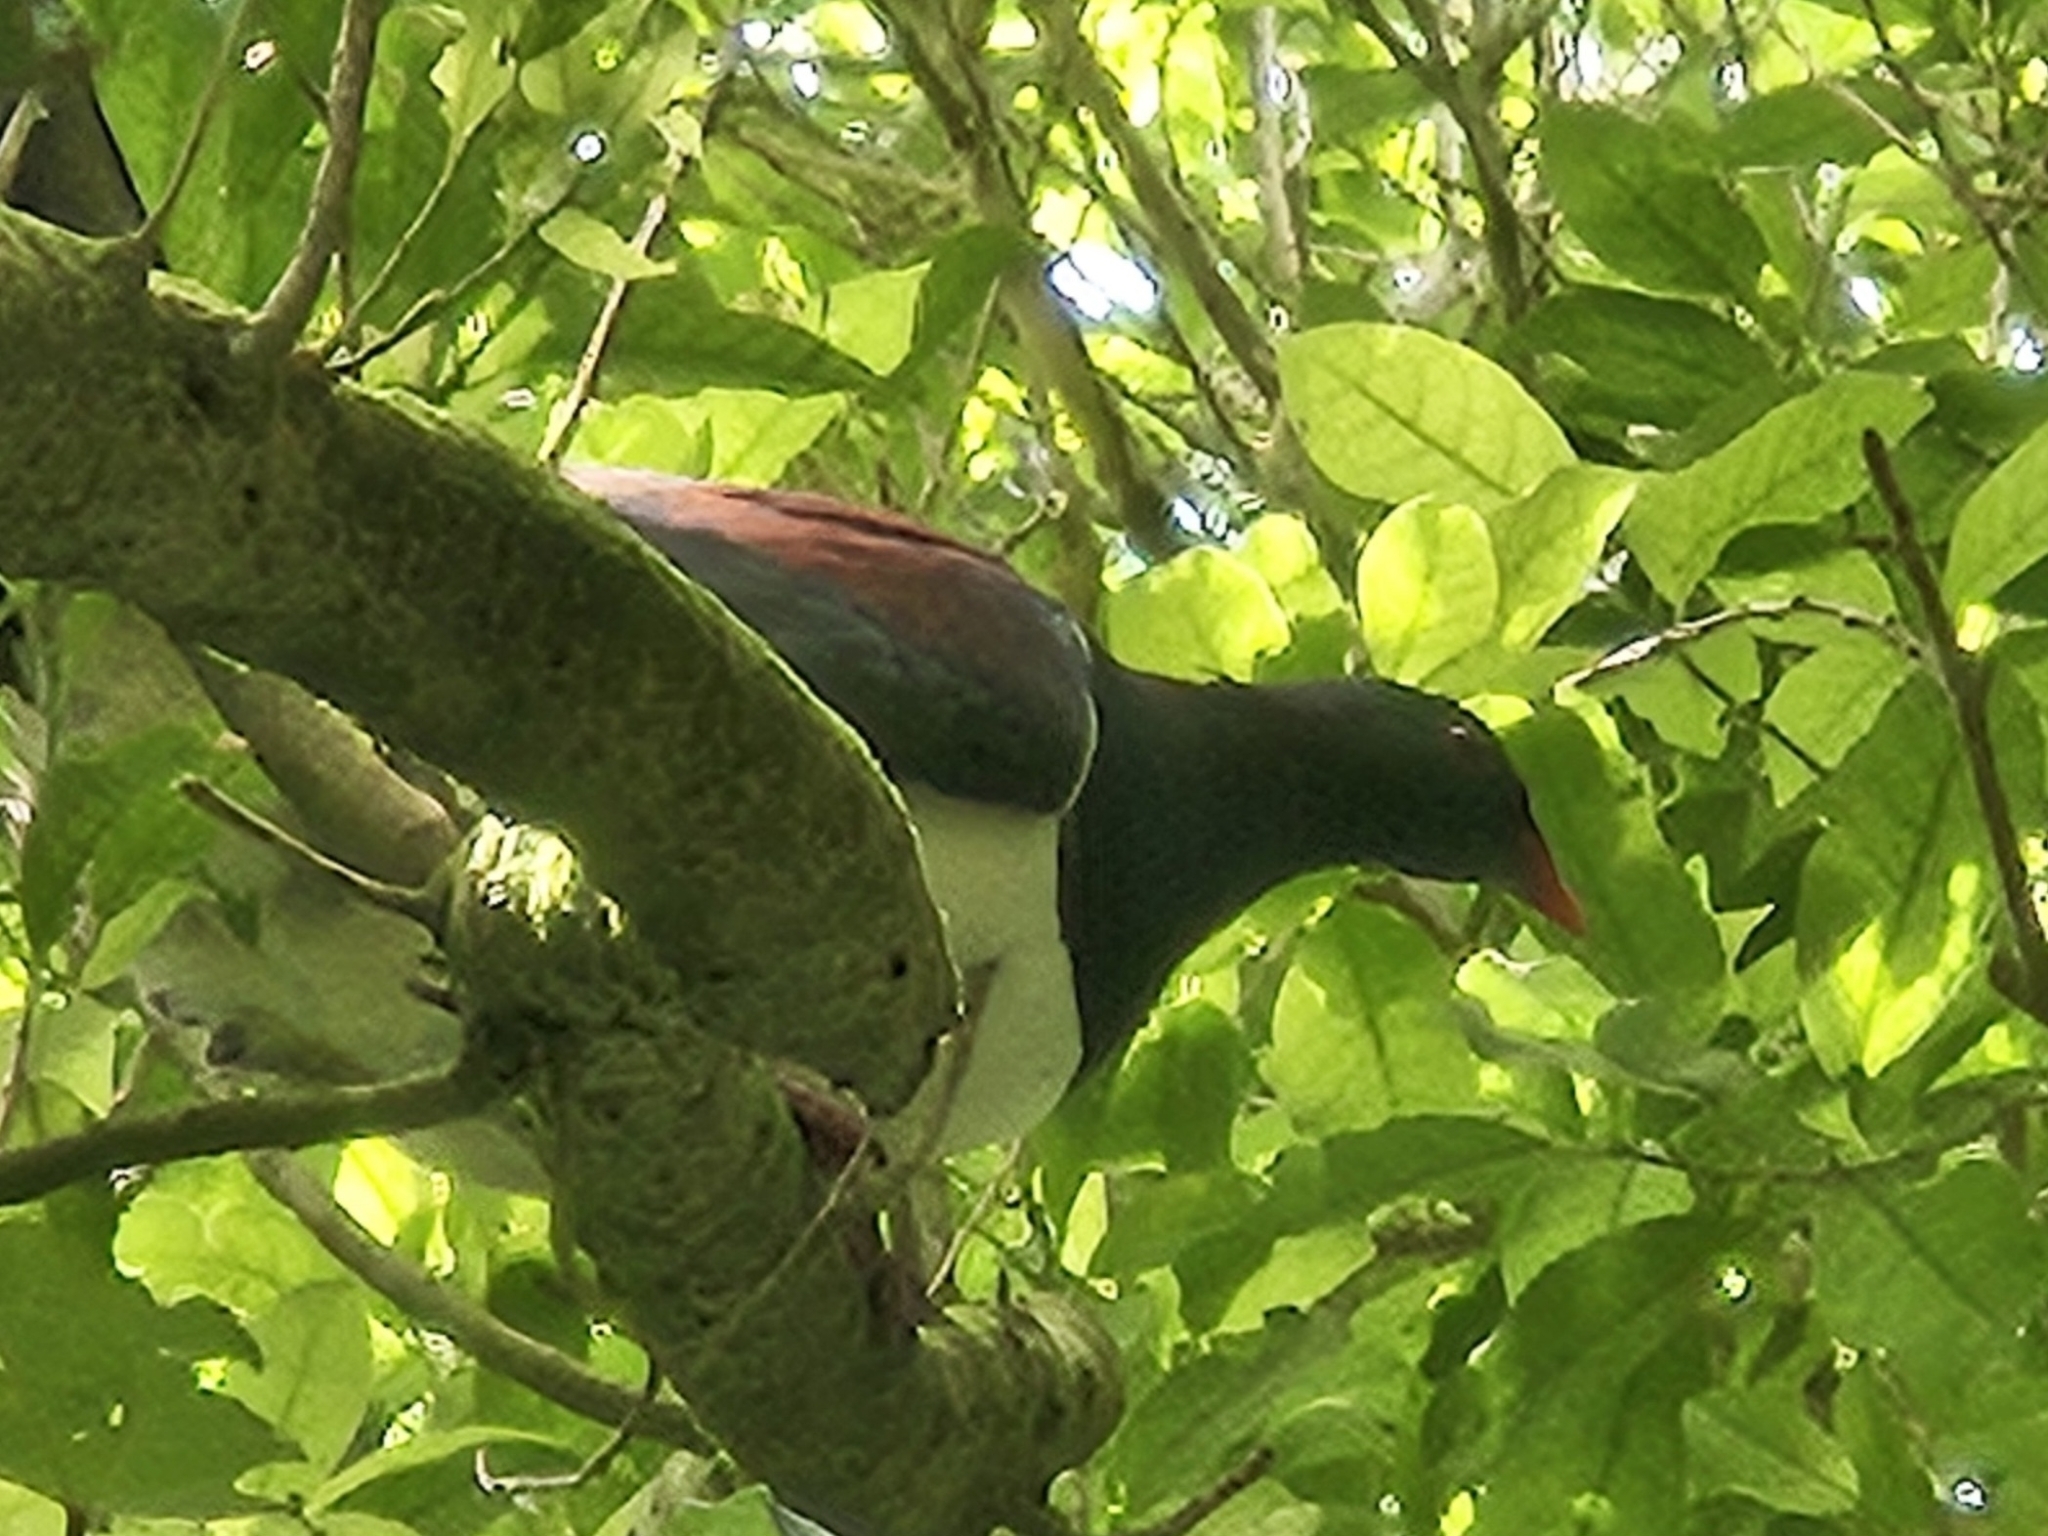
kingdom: Animalia
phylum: Chordata
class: Aves
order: Columbiformes
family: Columbidae
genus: Hemiphaga
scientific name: Hemiphaga novaeseelandiae
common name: New zealand pigeon
